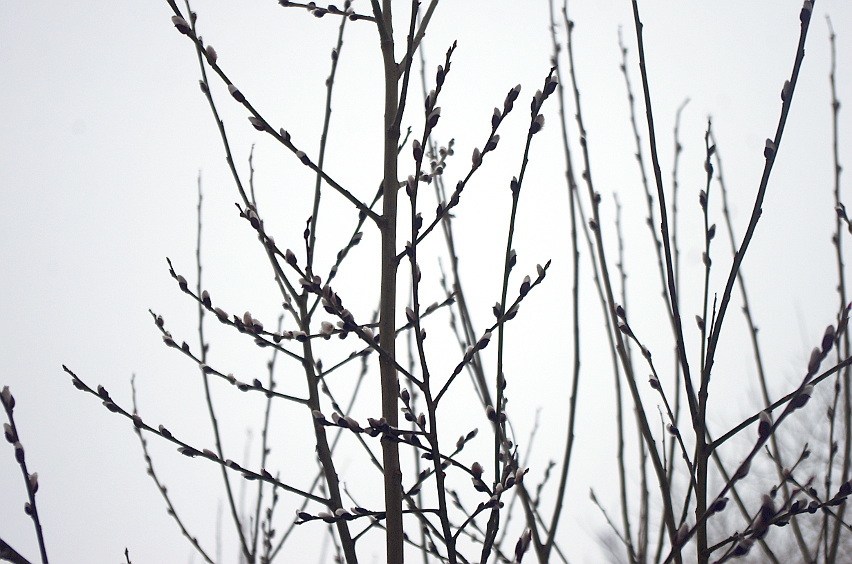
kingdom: Plantae
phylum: Tracheophyta
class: Magnoliopsida
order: Malpighiales
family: Salicaceae
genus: Salix
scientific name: Salix caprea
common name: Goat willow
